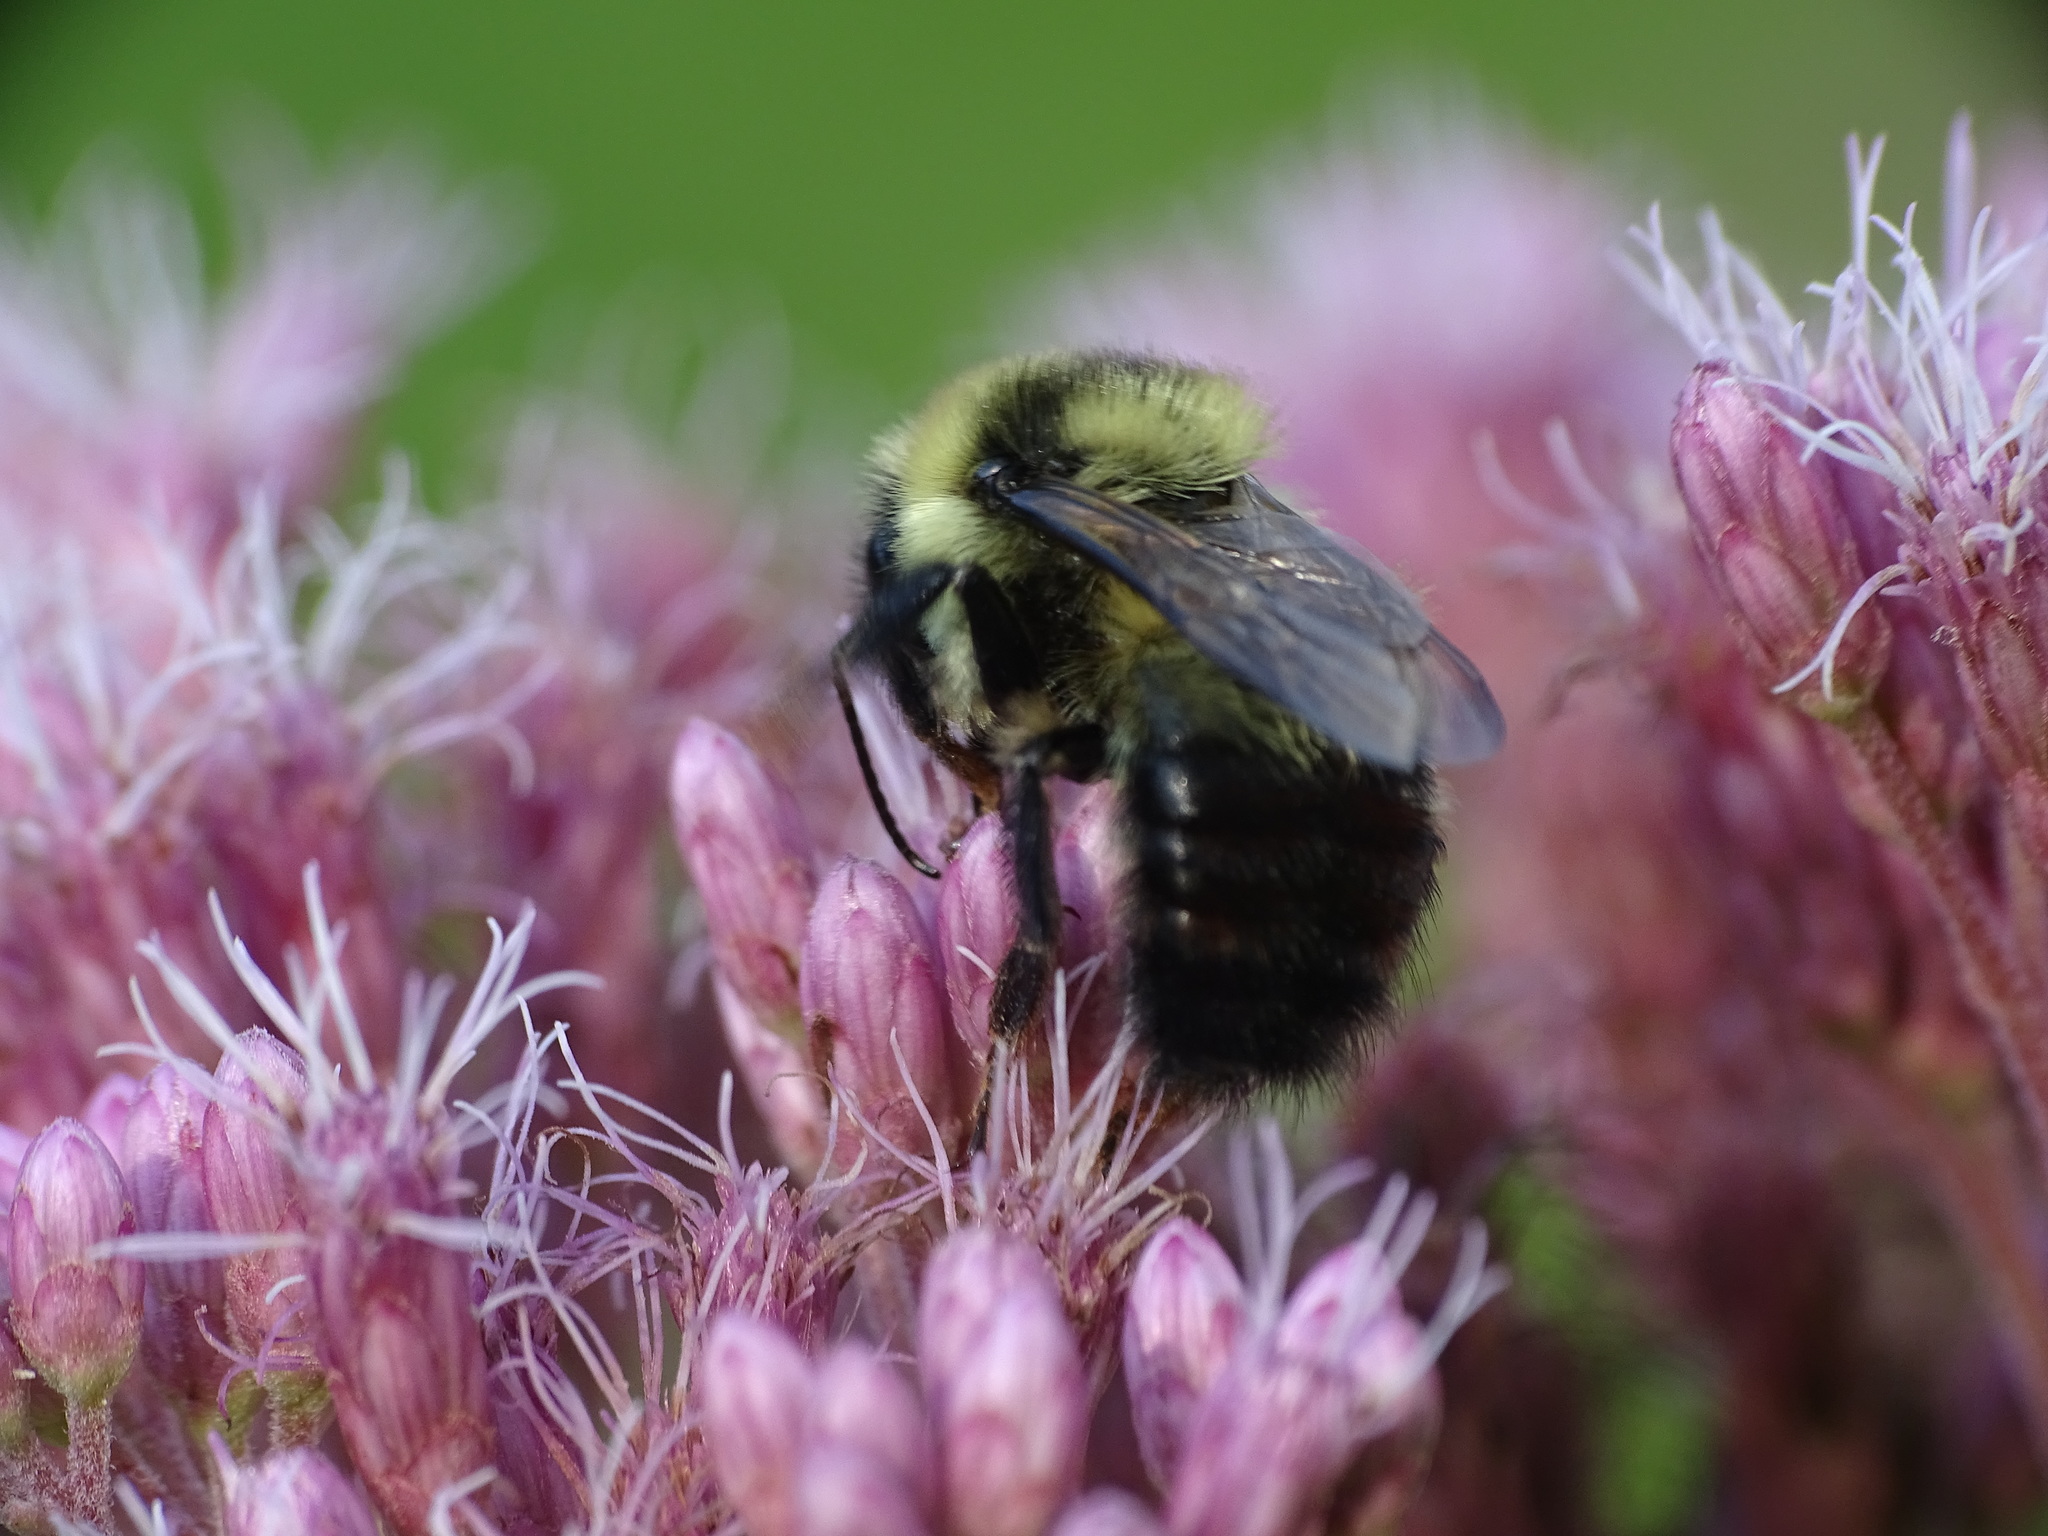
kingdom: Animalia
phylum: Arthropoda
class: Insecta
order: Hymenoptera
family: Apidae
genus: Bombus
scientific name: Bombus rufocinctus
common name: Red-belted bumble bee
